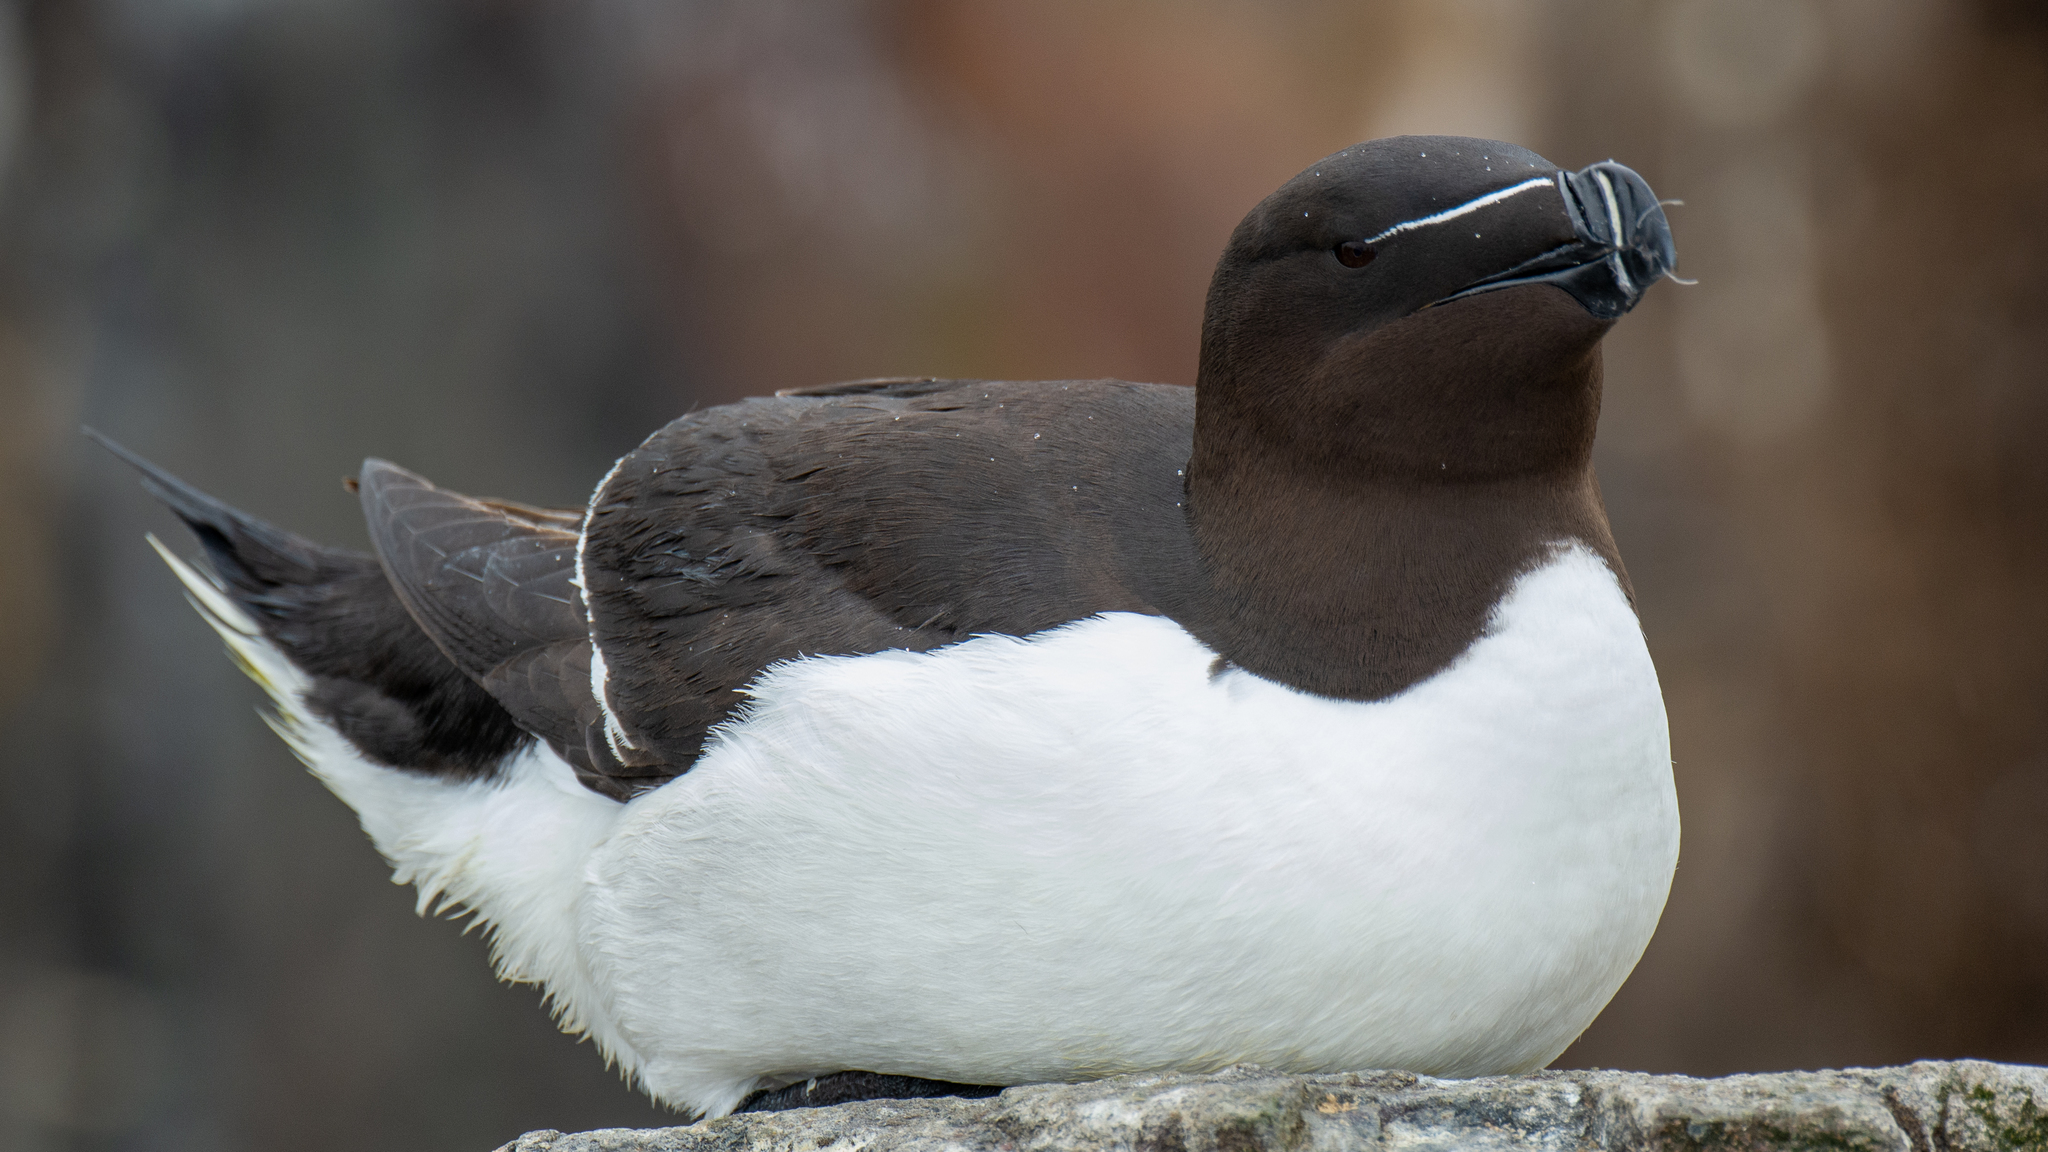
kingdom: Animalia
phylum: Chordata
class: Aves
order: Charadriiformes
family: Alcidae
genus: Alca
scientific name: Alca torda
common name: Razorbill
